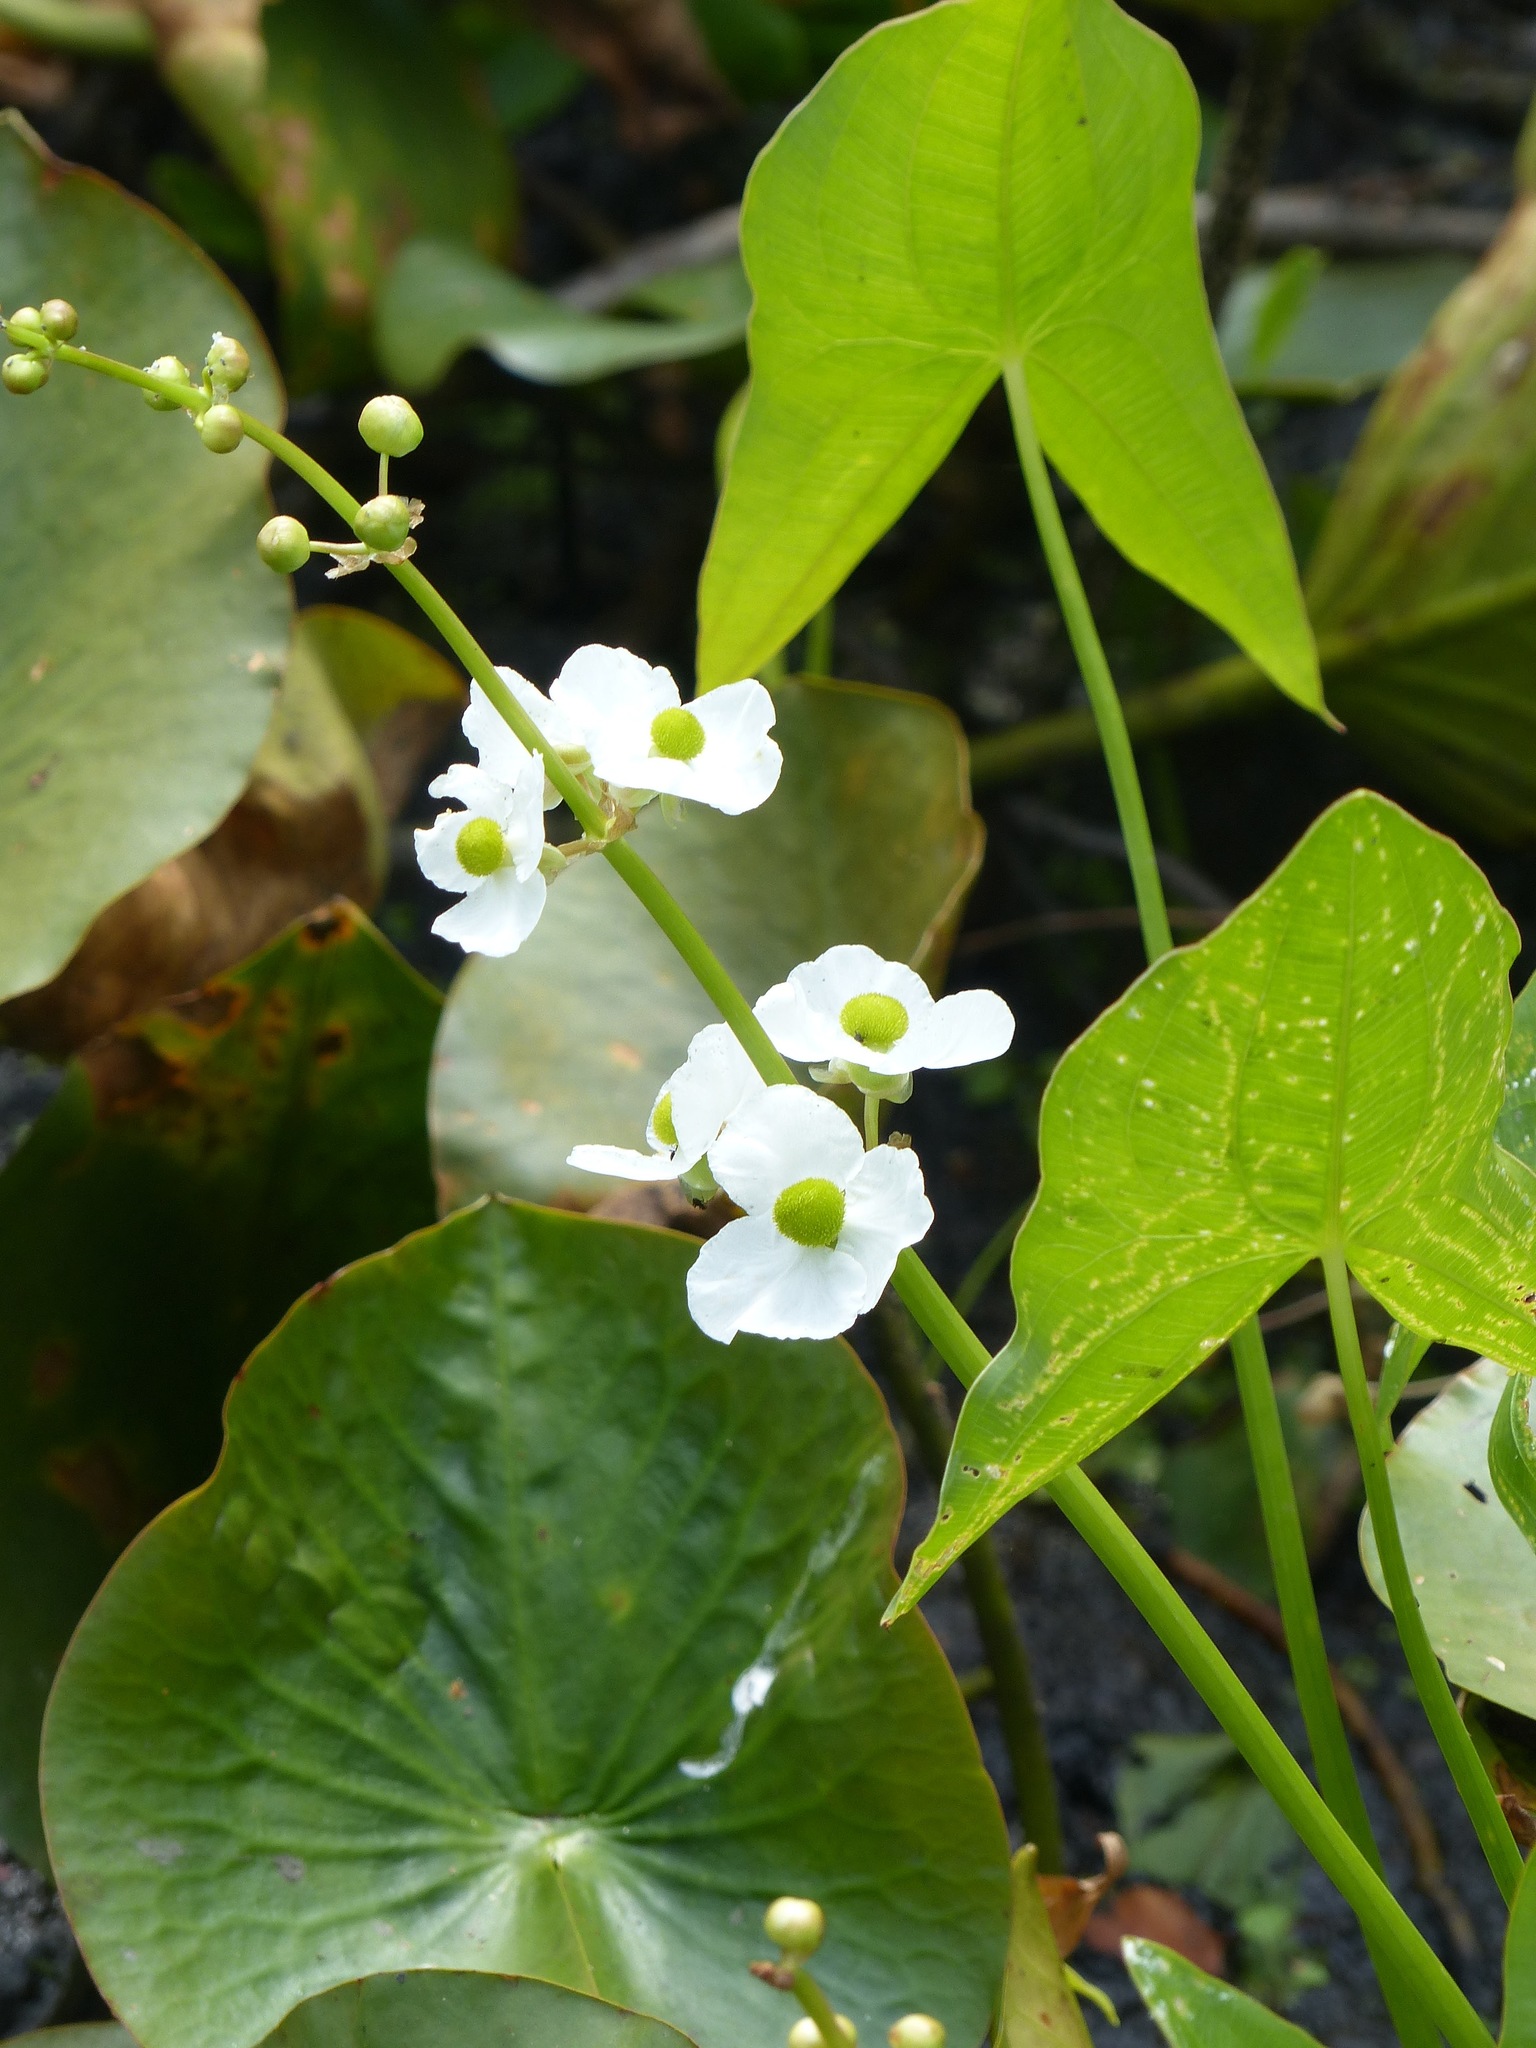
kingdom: Plantae
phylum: Tracheophyta
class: Liliopsida
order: Alismatales
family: Alismataceae
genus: Sagittaria
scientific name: Sagittaria latifolia
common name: Duck-potato
